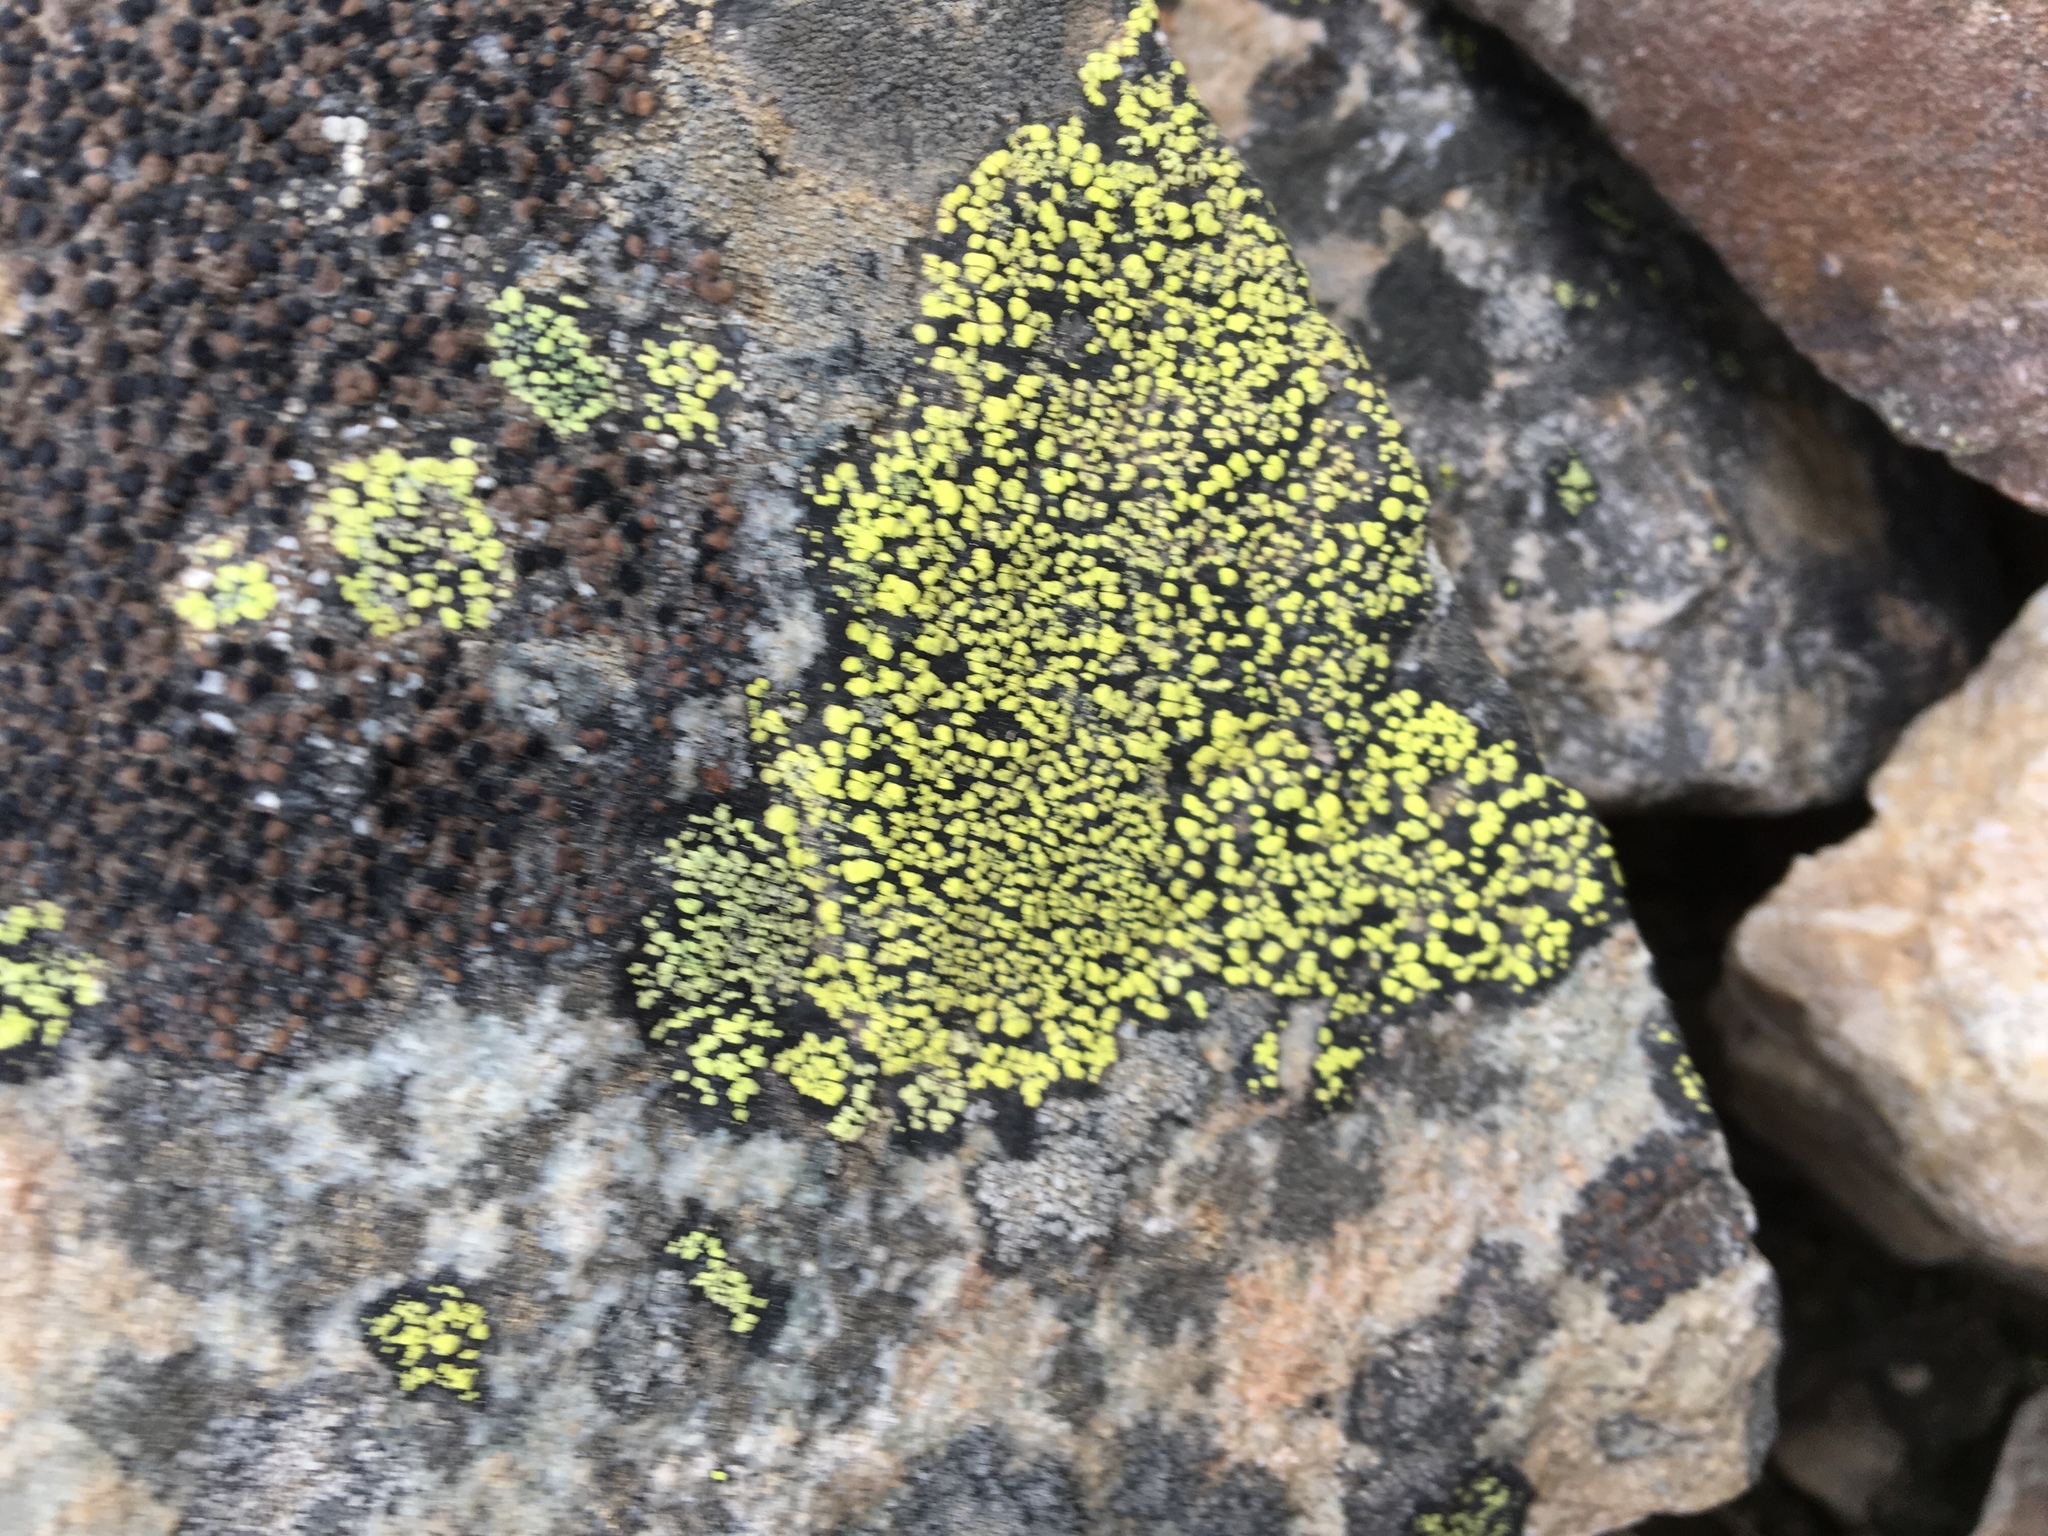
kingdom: Fungi
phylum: Ascomycota
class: Lecanoromycetes
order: Rhizocarpales
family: Rhizocarpaceae
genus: Rhizocarpon
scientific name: Rhizocarpon geographicum
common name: Yellow map lichen
